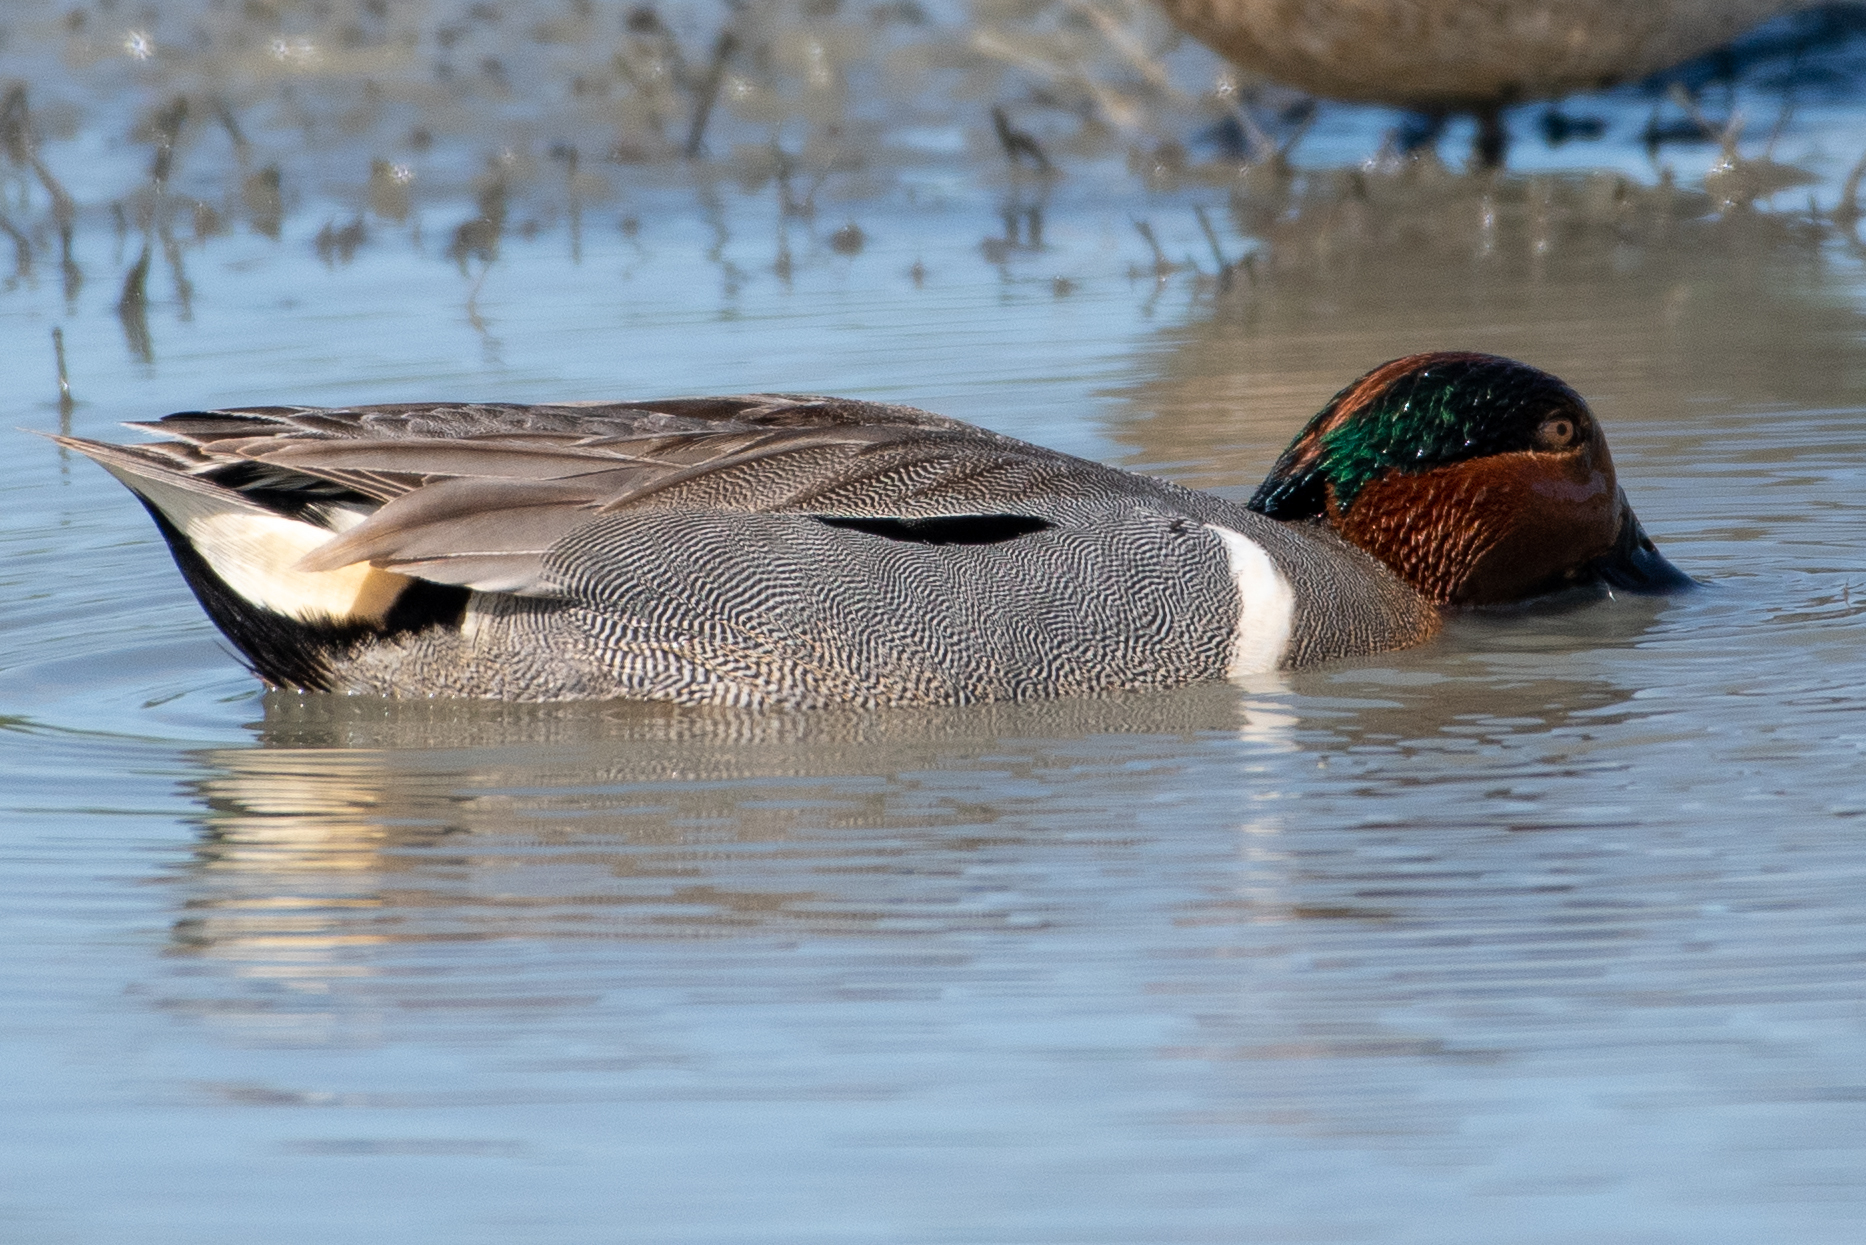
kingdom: Animalia
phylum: Chordata
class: Aves
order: Anseriformes
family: Anatidae
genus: Anas
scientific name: Anas crecca
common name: Eurasian teal
